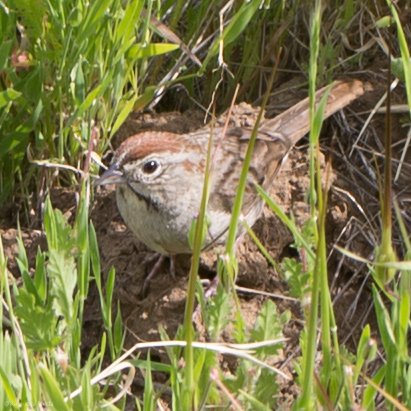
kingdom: Animalia
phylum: Chordata
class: Aves
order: Passeriformes
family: Passerellidae
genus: Aimophila
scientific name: Aimophila ruficeps
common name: Rufous-crowned sparrow
